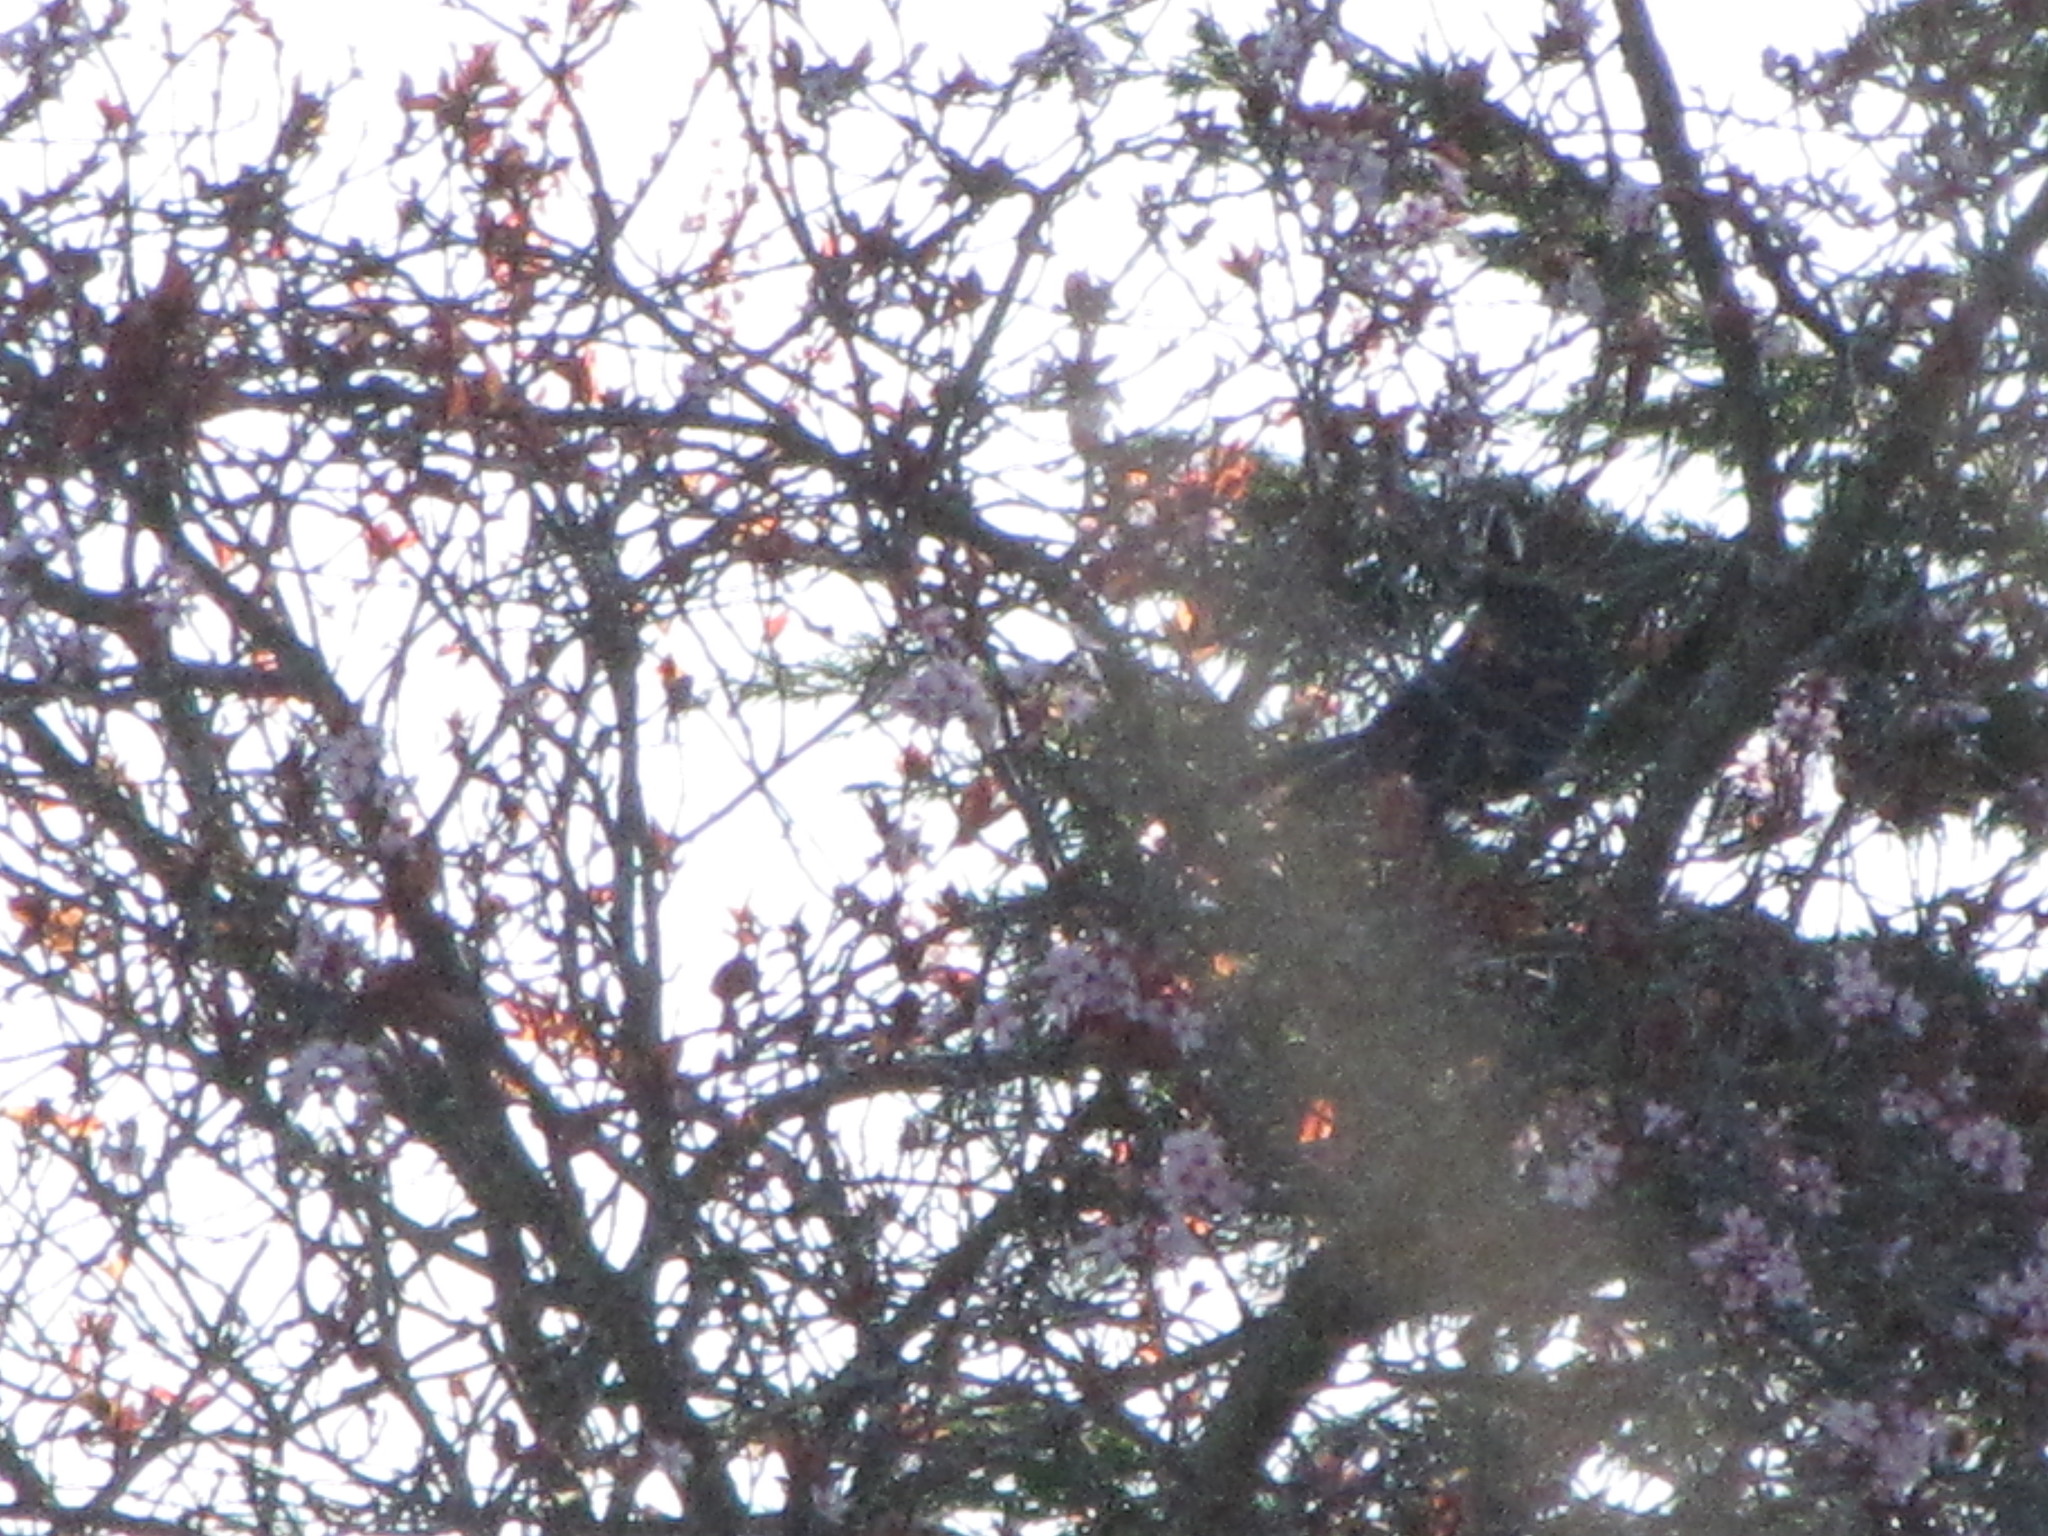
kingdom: Animalia
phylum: Chordata
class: Aves
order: Passeriformes
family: Corvidae
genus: Cyanocitta
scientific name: Cyanocitta stelleri
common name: Steller's jay
